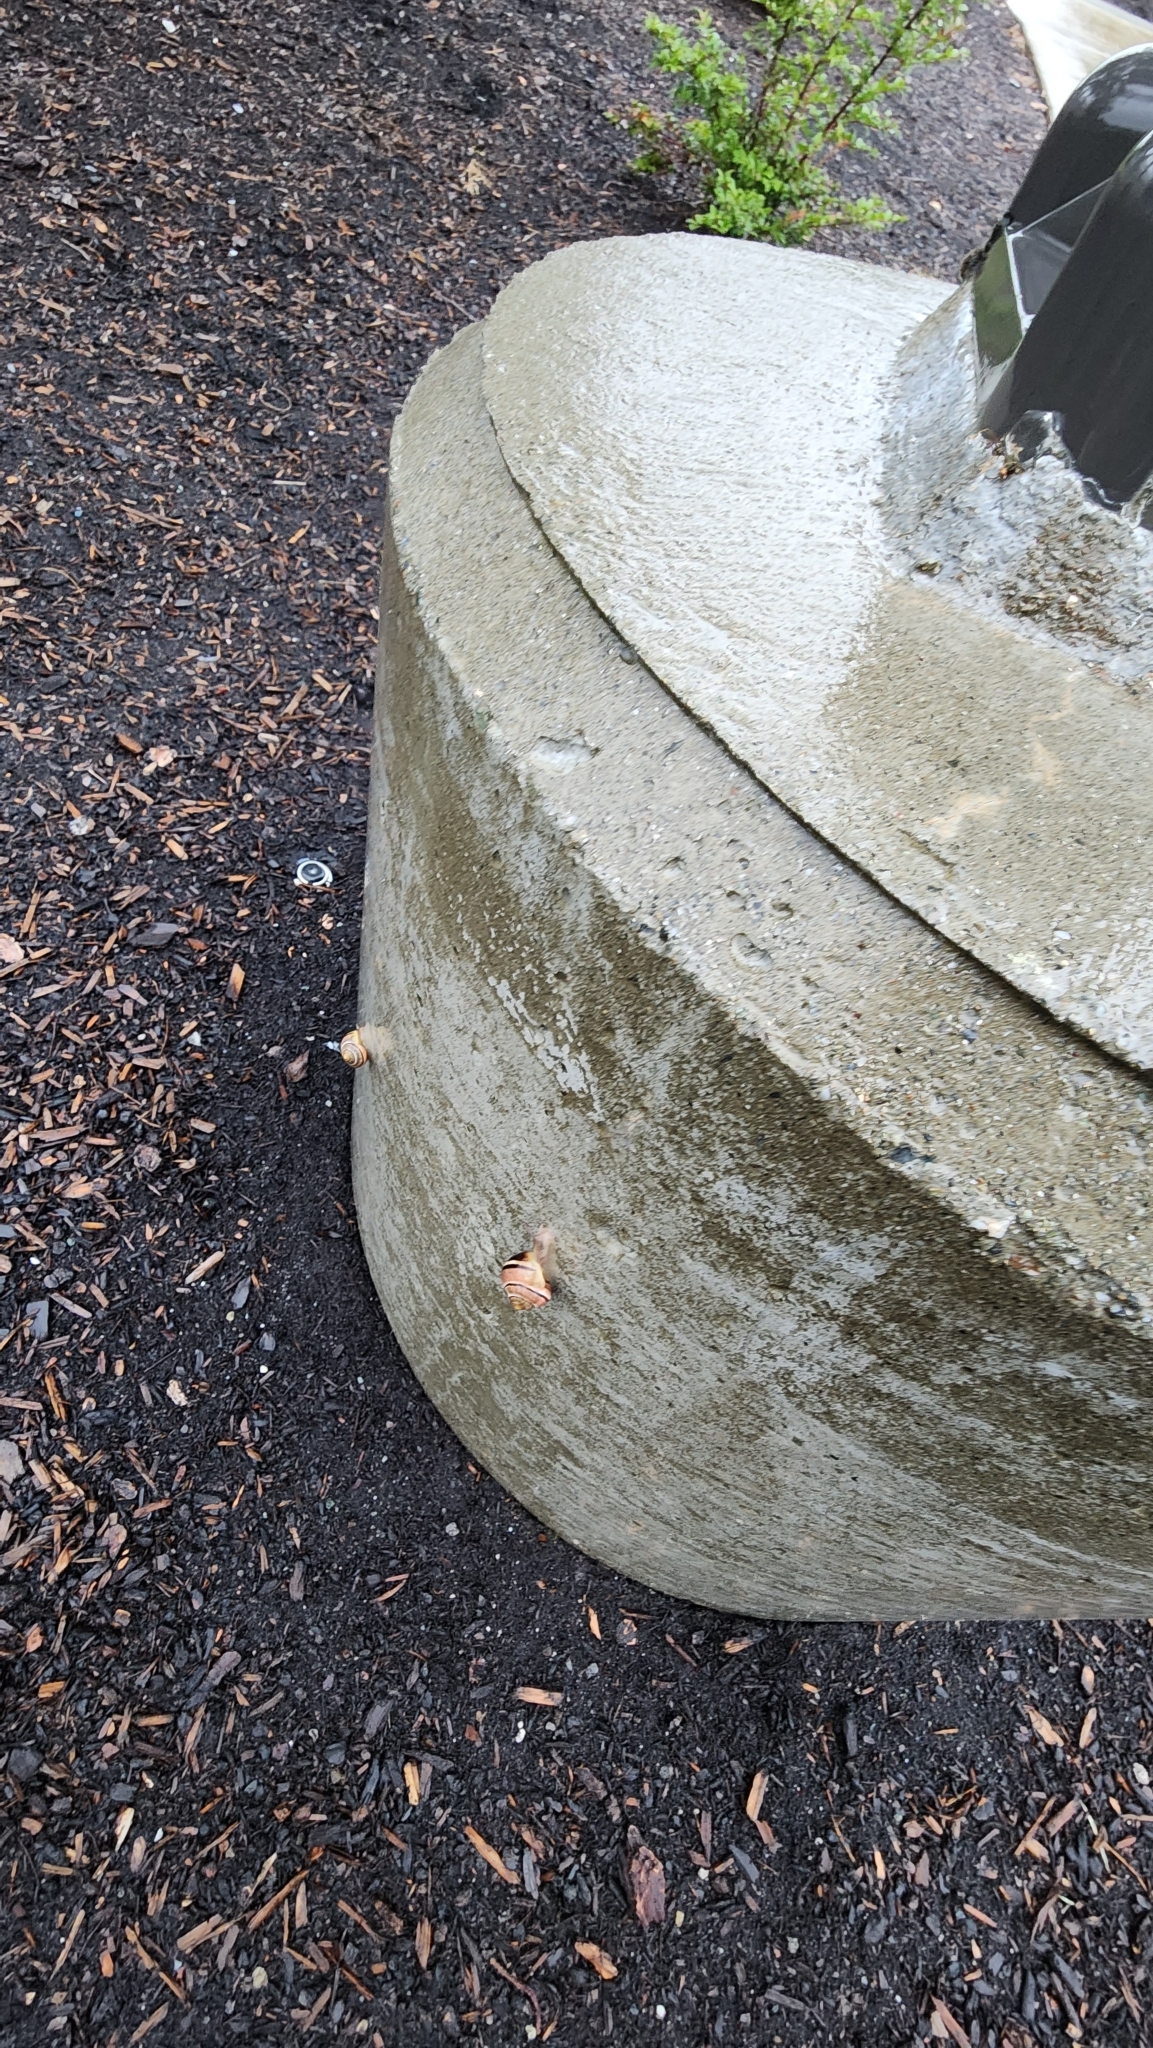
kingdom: Animalia
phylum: Mollusca
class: Gastropoda
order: Stylommatophora
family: Helicidae
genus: Cepaea
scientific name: Cepaea nemoralis
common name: Grovesnail
